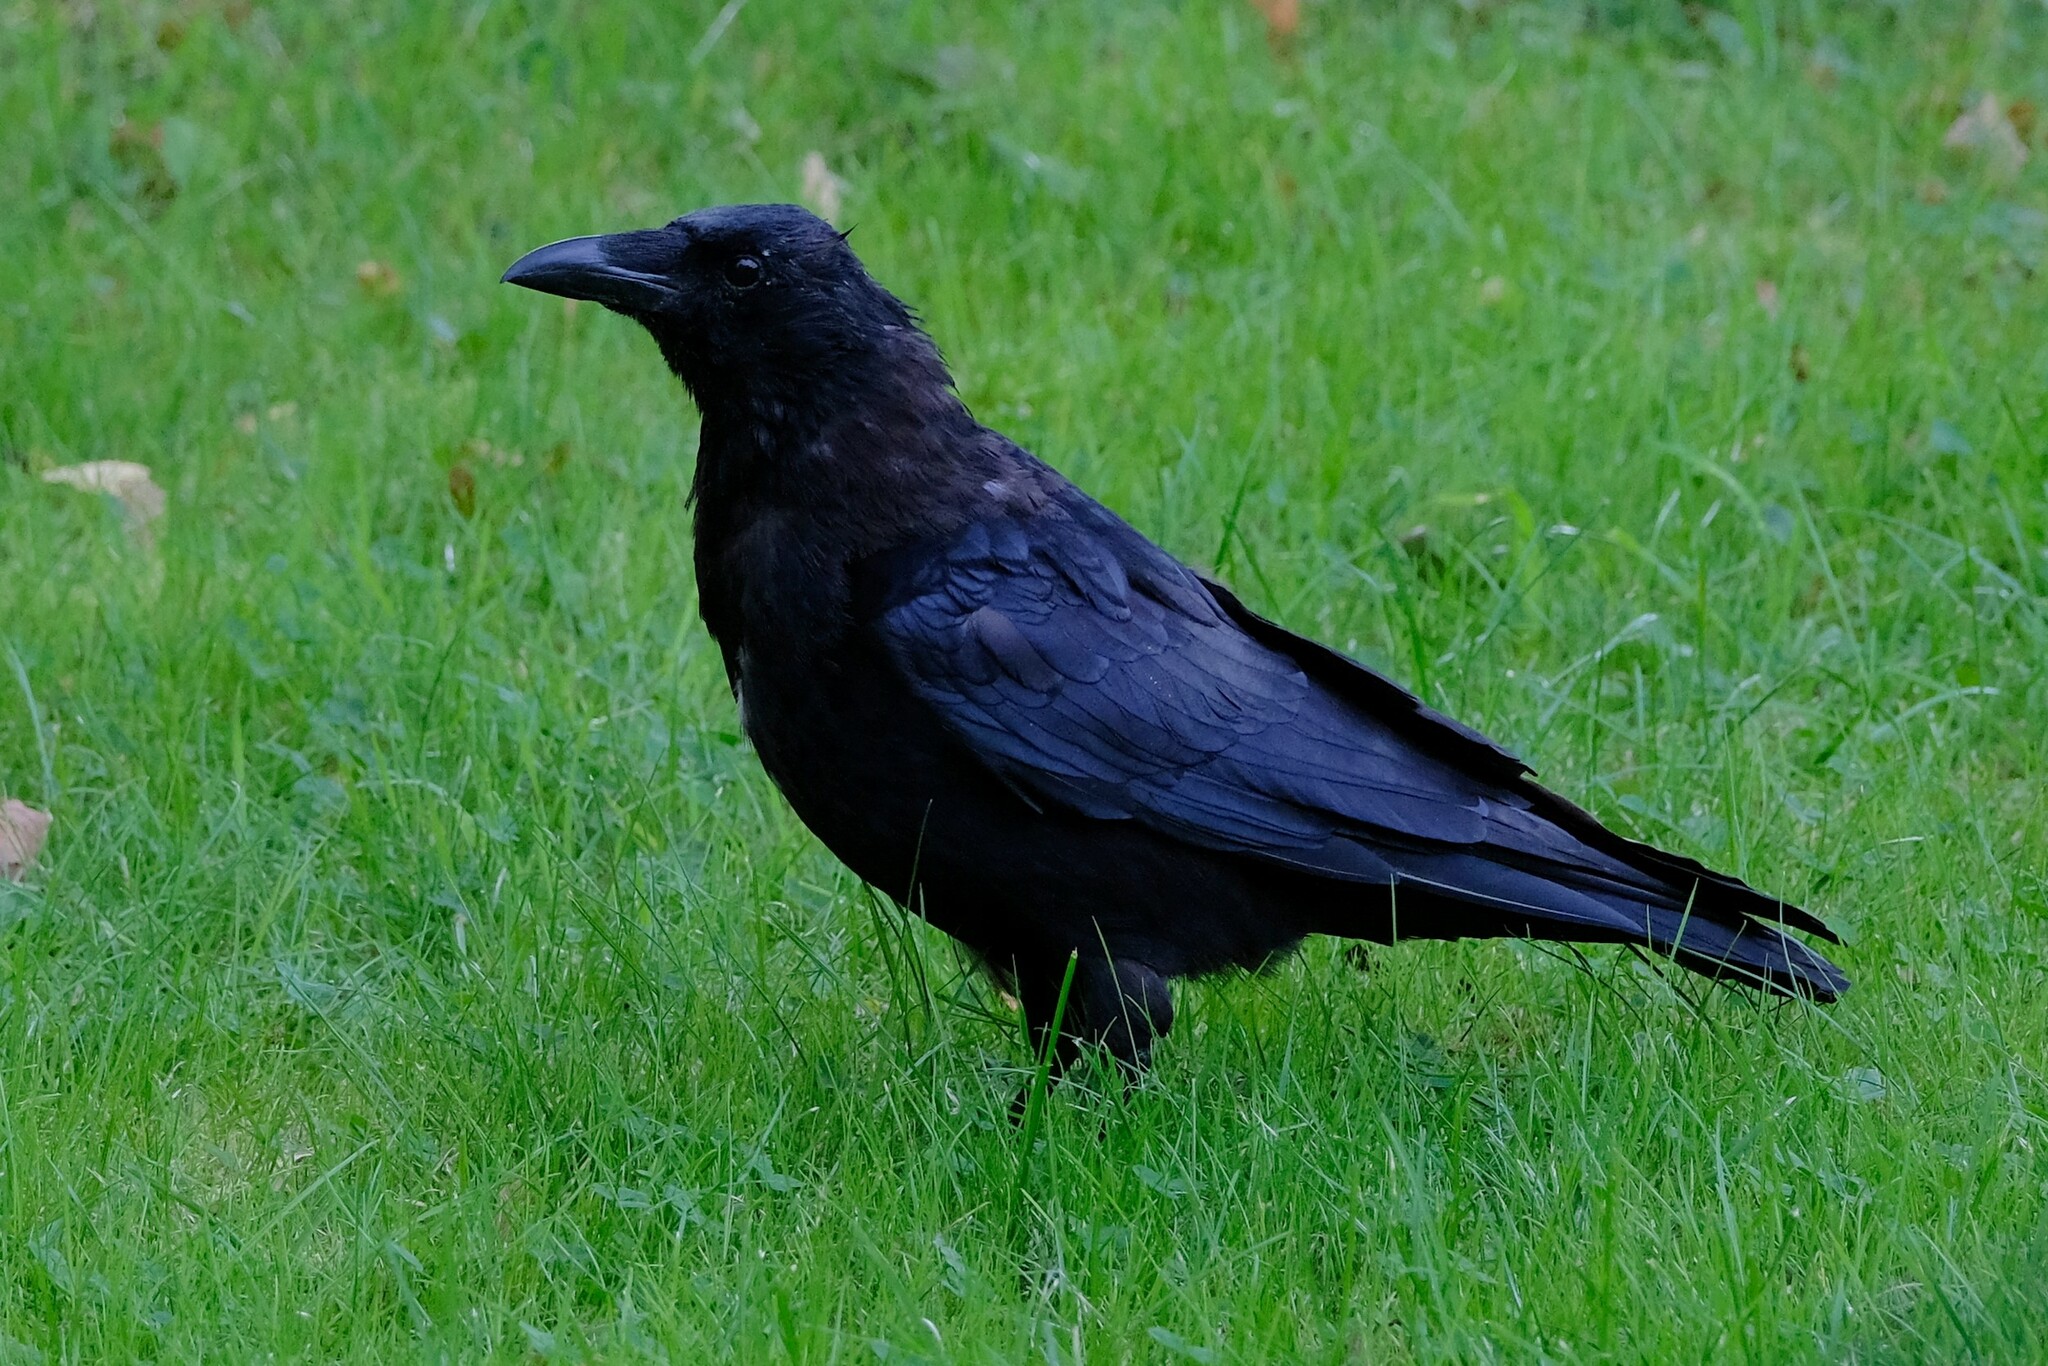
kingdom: Animalia
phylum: Chordata
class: Aves
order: Passeriformes
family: Corvidae
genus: Corvus
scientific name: Corvus corone
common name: Carrion crow
